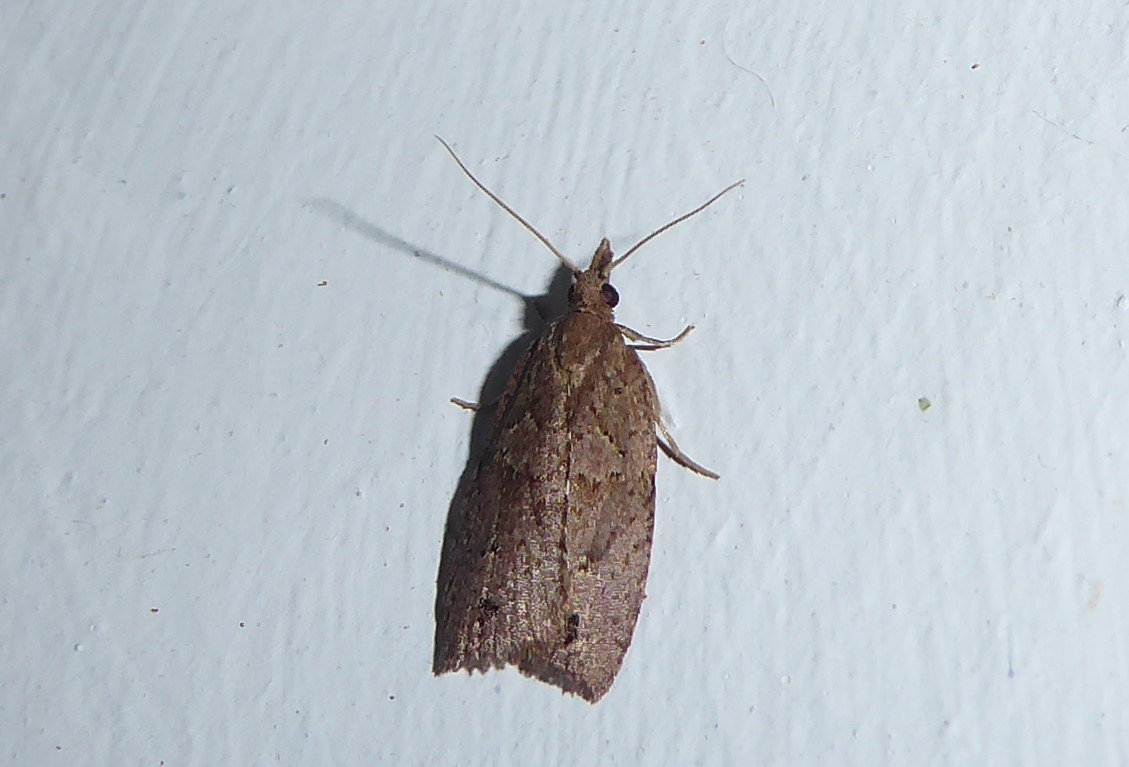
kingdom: Animalia
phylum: Arthropoda
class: Insecta
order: Lepidoptera
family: Tortricidae
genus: Planotortrix
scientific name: Planotortrix notophaea
